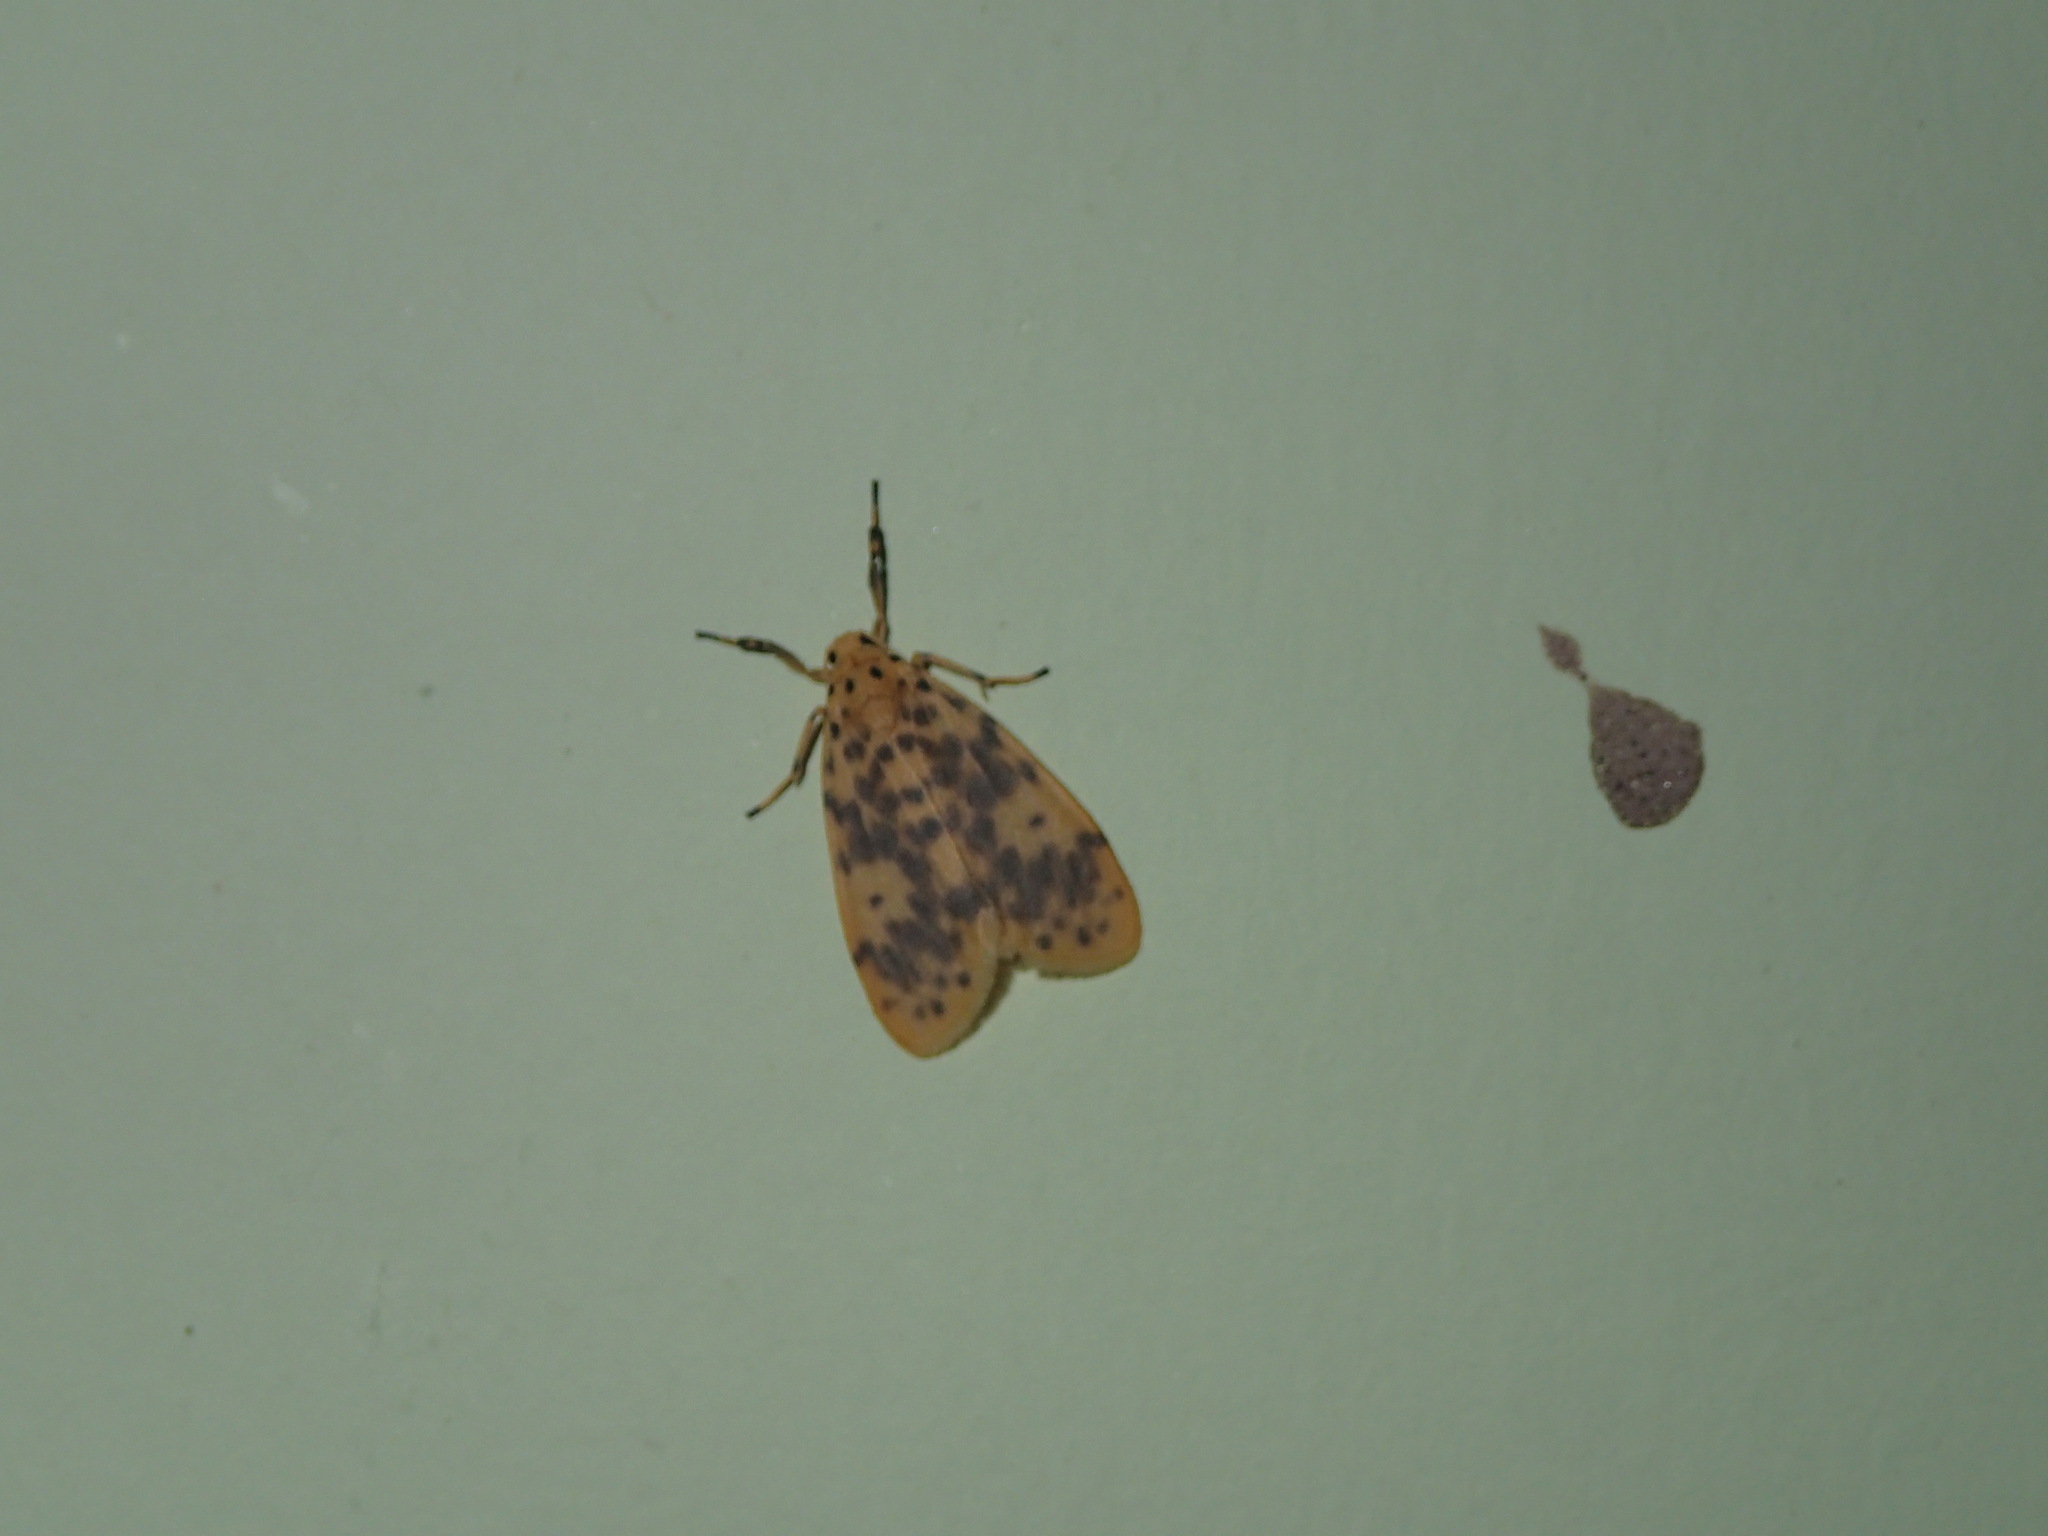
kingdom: Animalia
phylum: Arthropoda
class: Insecta
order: Lepidoptera
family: Erebidae
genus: Miltochrista
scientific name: Miltochrista obsoleta
